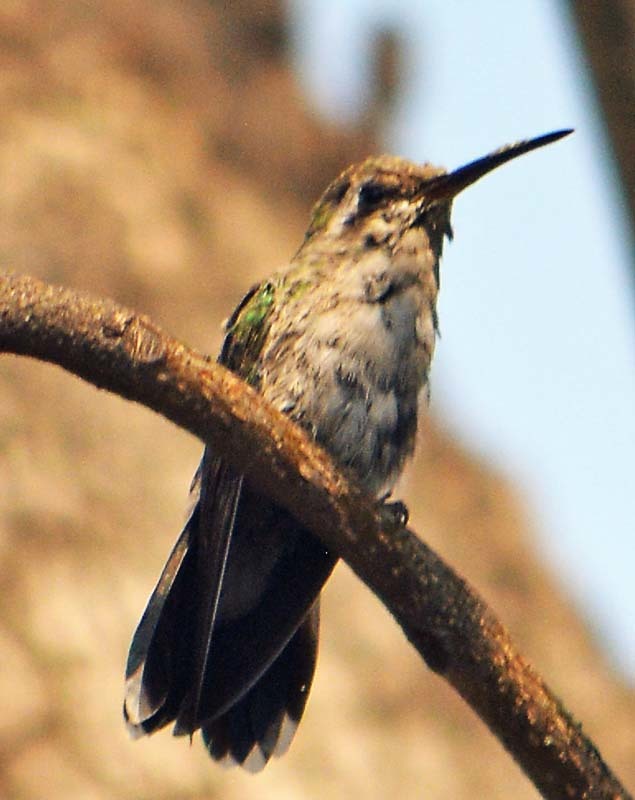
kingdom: Animalia
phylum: Chordata
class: Aves
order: Apodiformes
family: Trochilidae
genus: Cynanthus
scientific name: Cynanthus latirostris
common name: Broad-billed hummingbird
